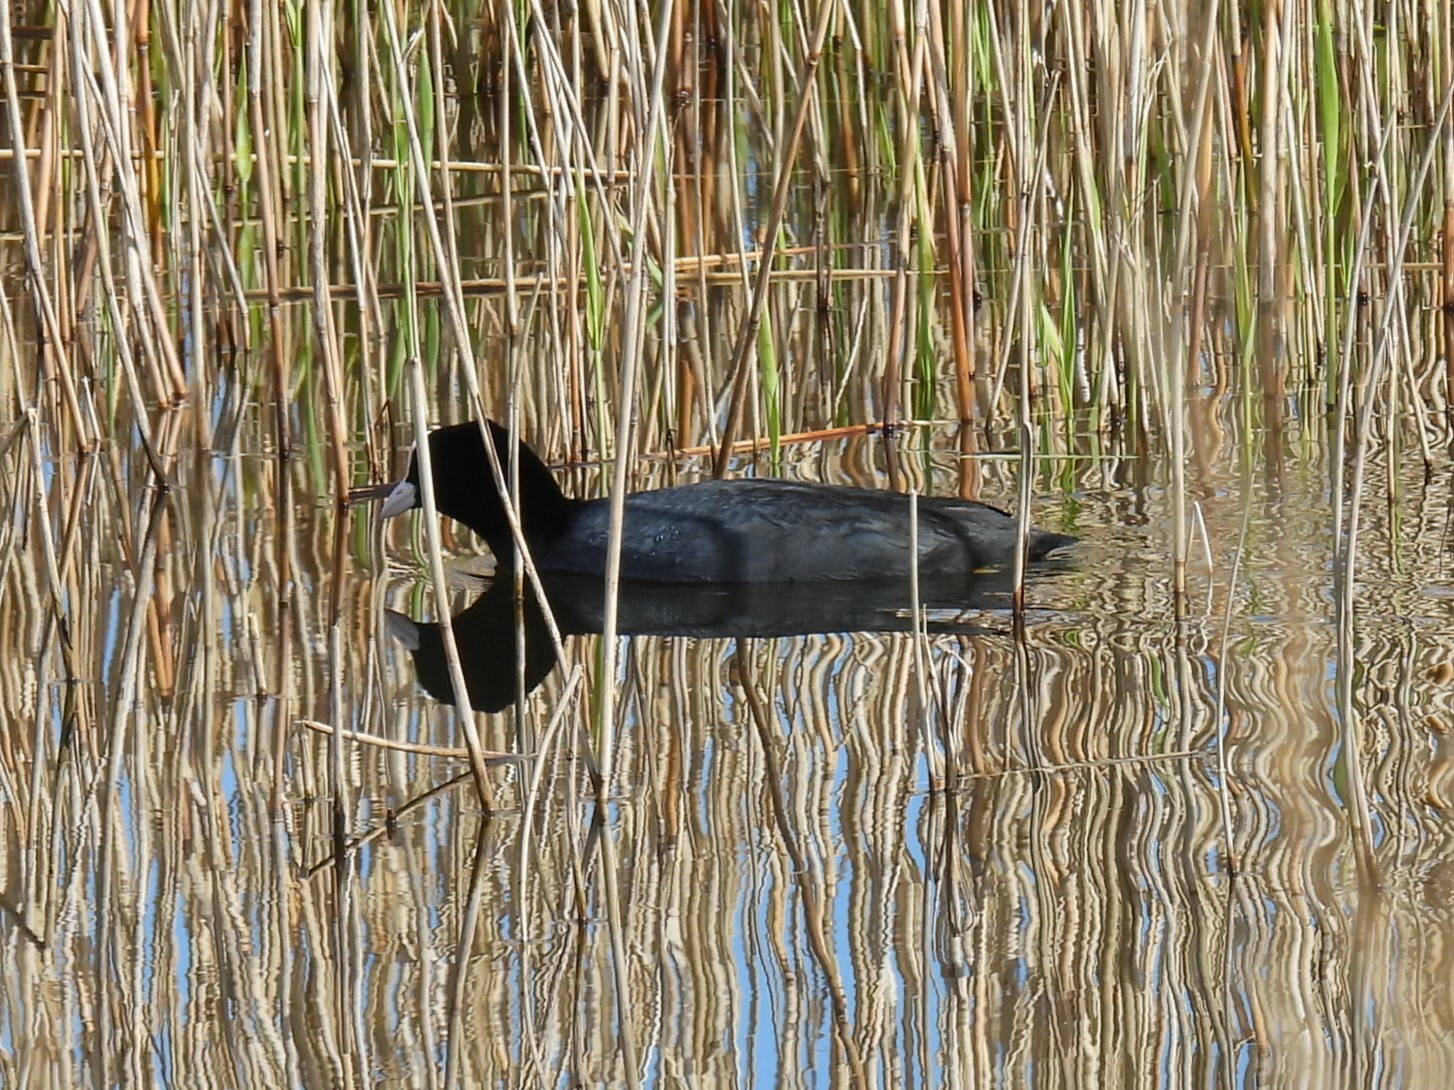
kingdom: Animalia
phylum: Chordata
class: Aves
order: Gruiformes
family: Rallidae
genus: Fulica
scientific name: Fulica atra
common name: Eurasian coot
